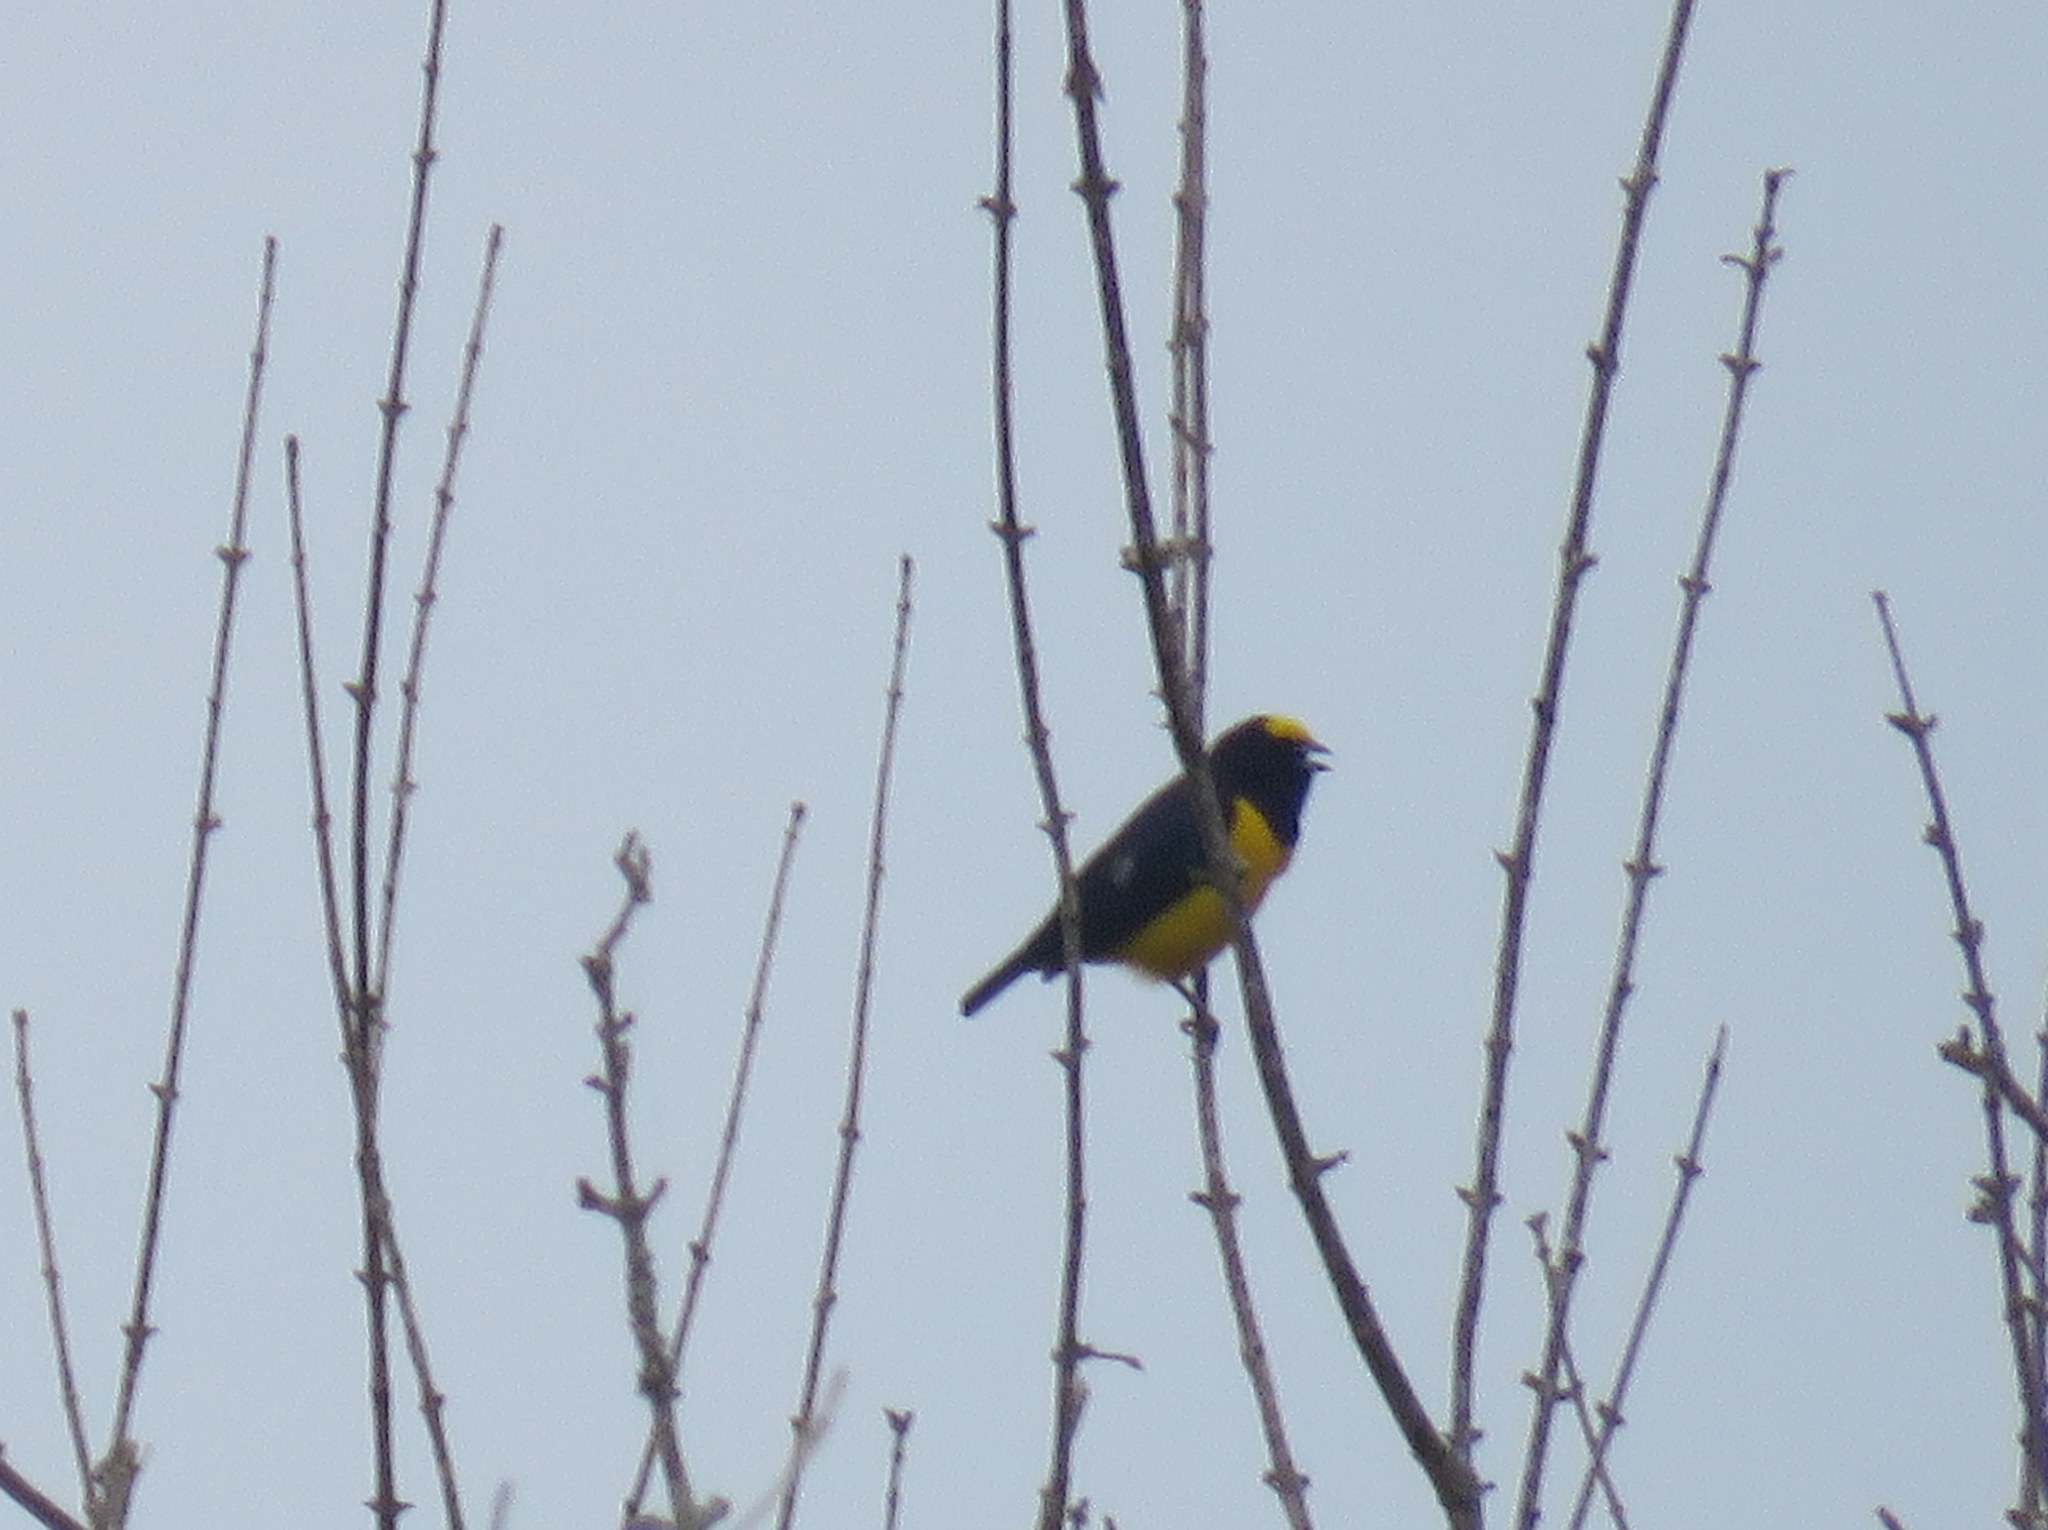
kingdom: Animalia
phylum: Chordata
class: Aves
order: Passeriformes
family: Fringillidae
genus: Euphonia
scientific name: Euphonia chlorotica
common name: Purple-throated euphonia
